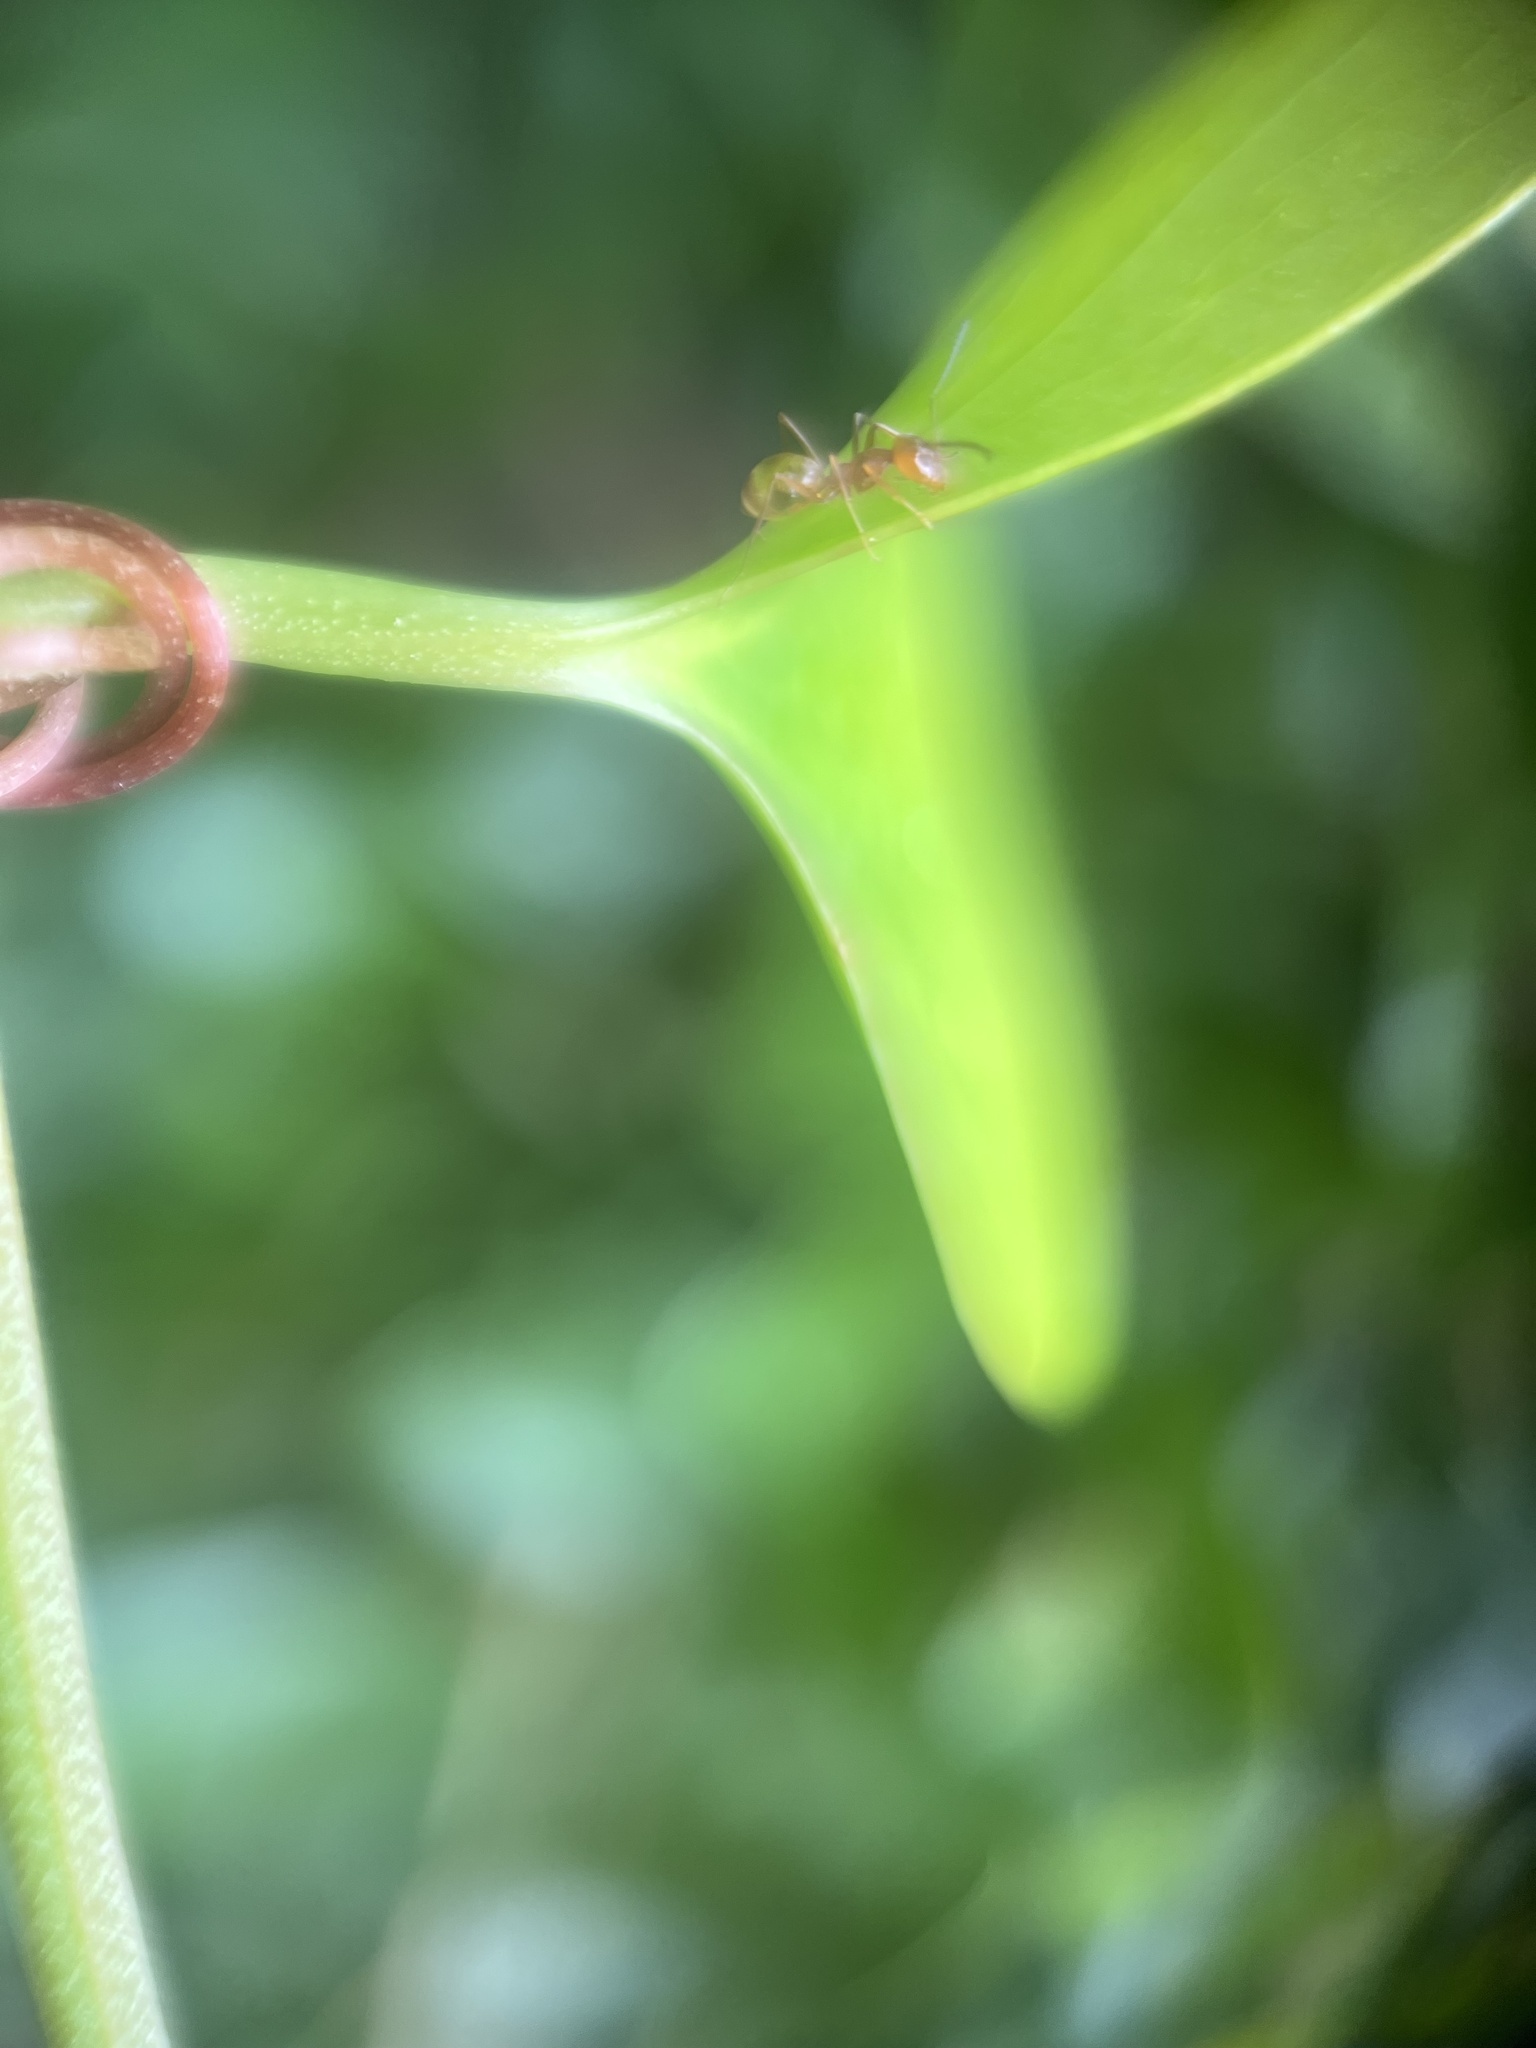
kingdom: Animalia
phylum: Arthropoda
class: Insecta
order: Hymenoptera
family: Formicidae
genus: Dorymyrmex
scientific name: Dorymyrmex bureni
